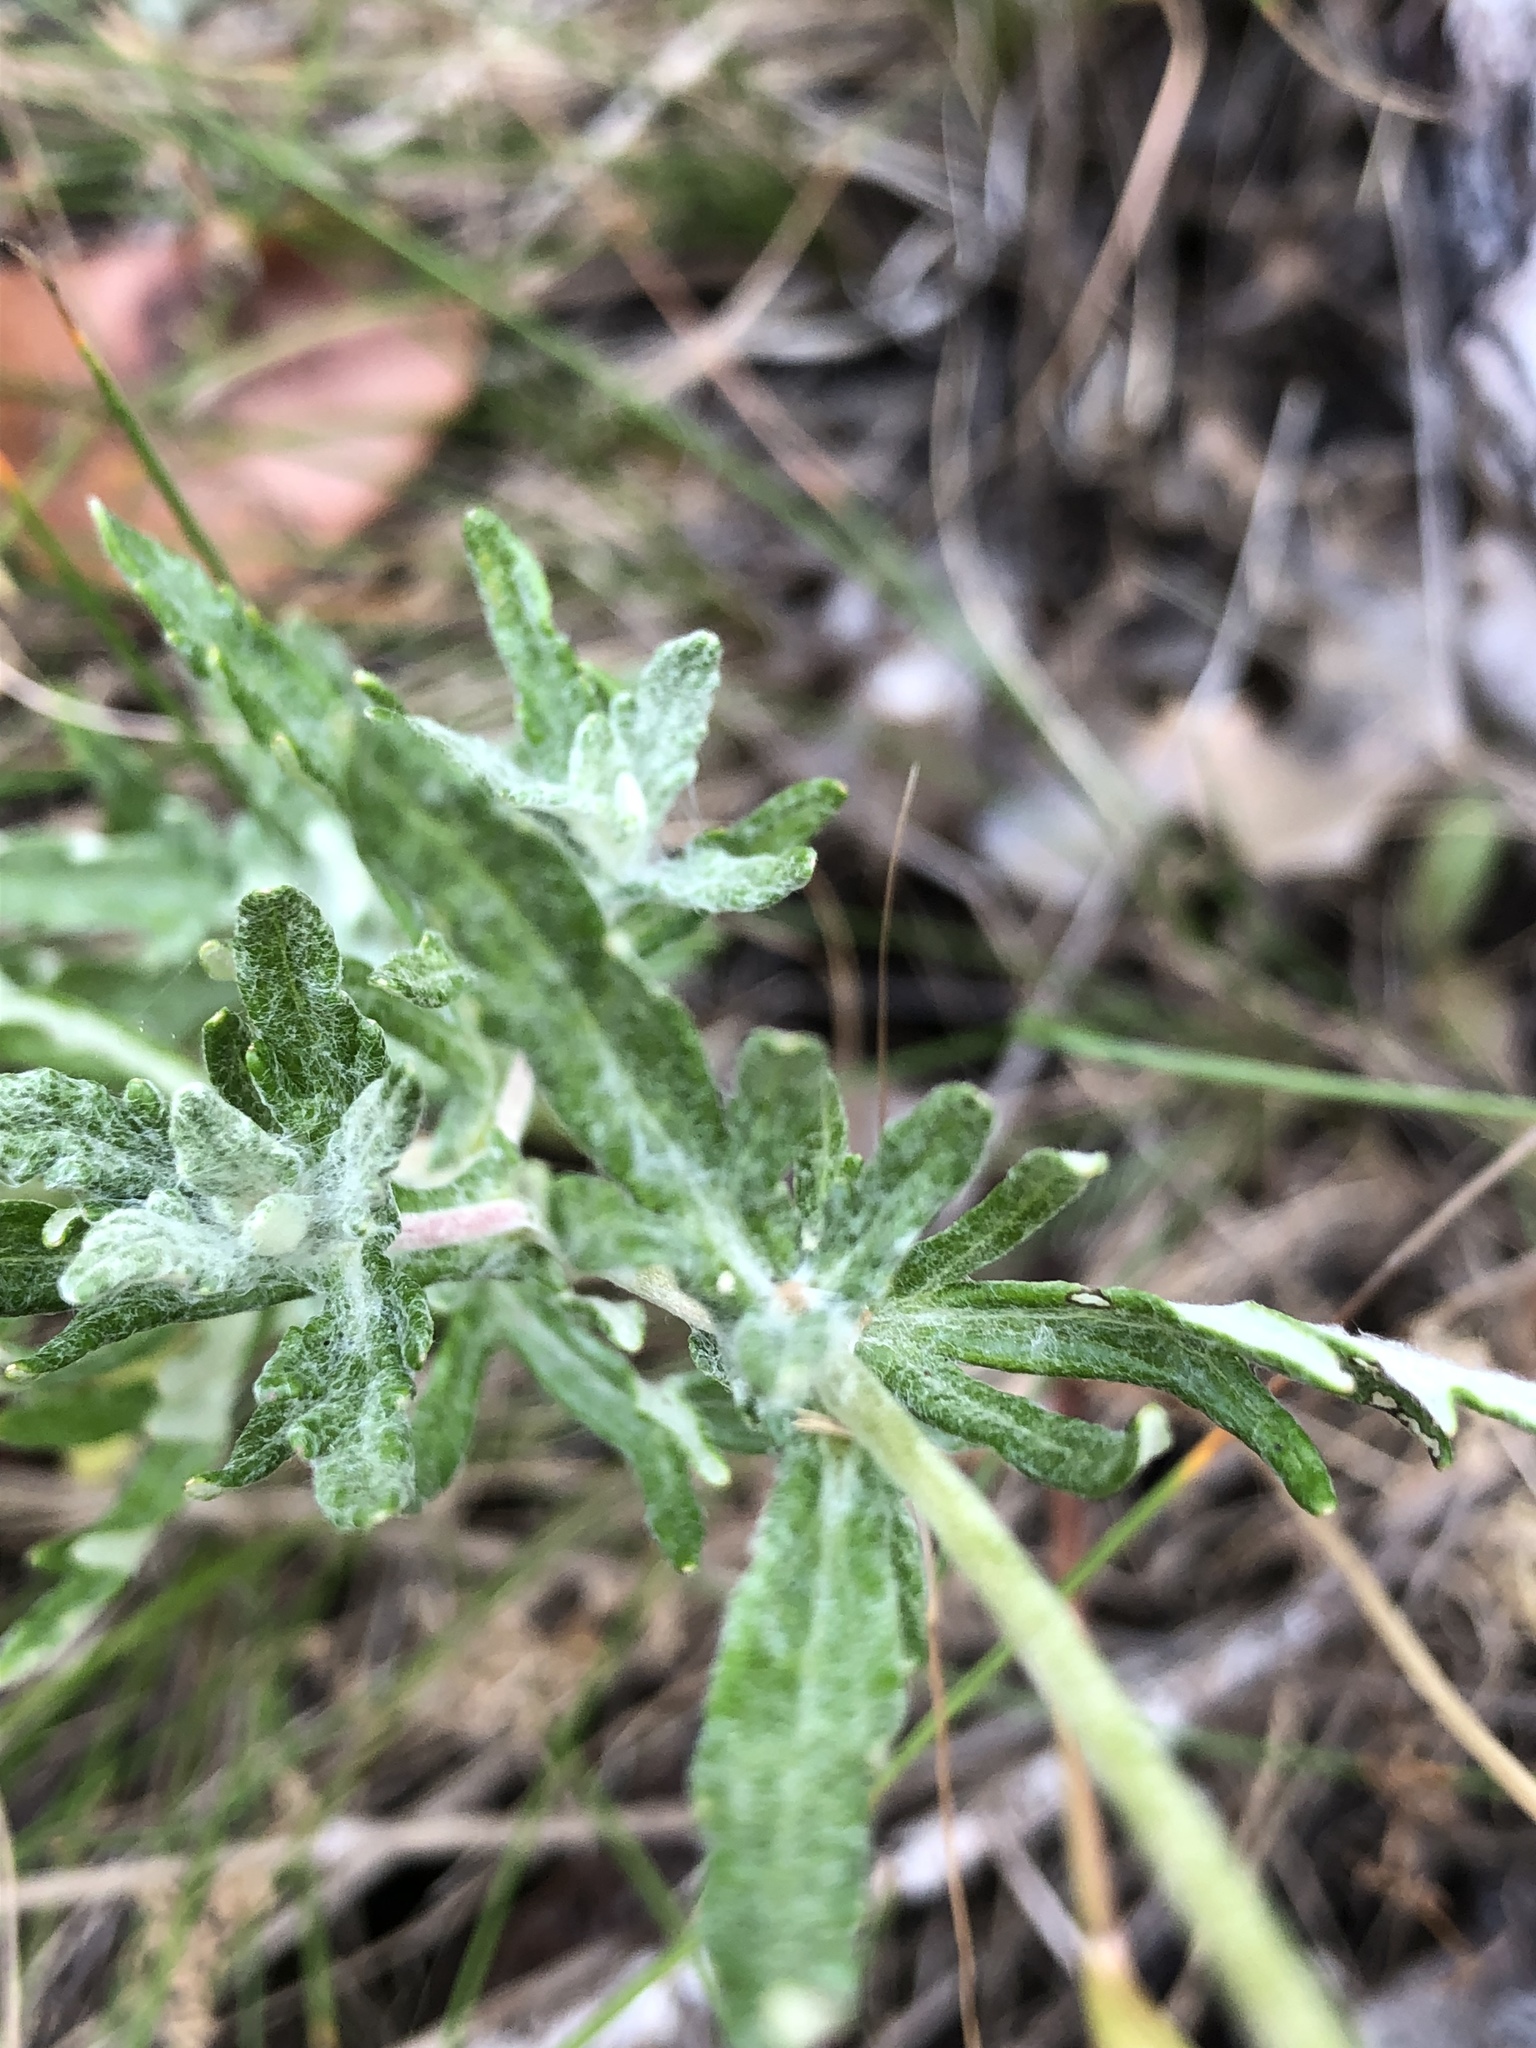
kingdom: Plantae
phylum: Tracheophyta
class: Magnoliopsida
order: Asterales
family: Asteraceae
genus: Eriophyllum
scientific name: Eriophyllum lanatum
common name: Common woolly-sunflower
